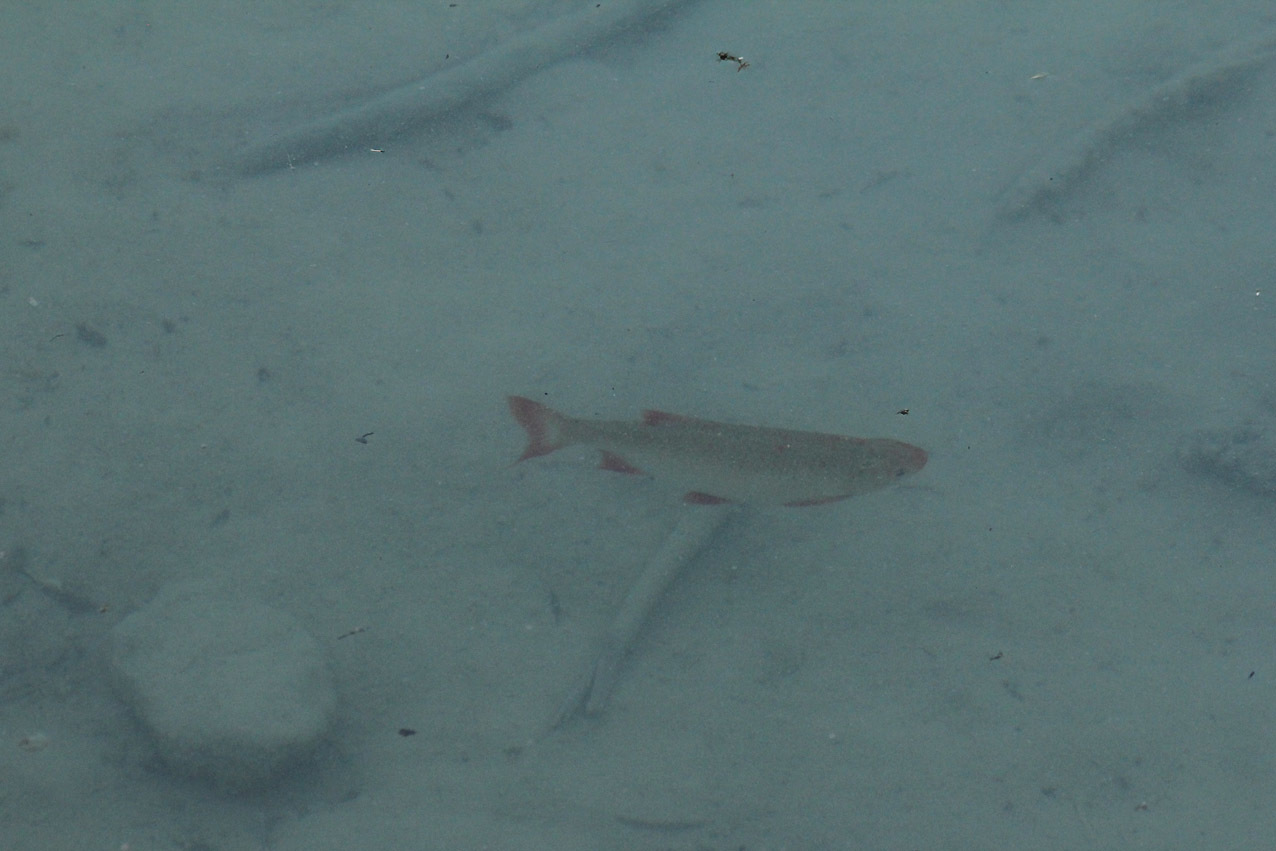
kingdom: Animalia
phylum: Chordata
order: Cypriniformes
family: Cyprinidae
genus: Scardinius
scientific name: Scardinius erythrophthalmus
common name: Rudd
